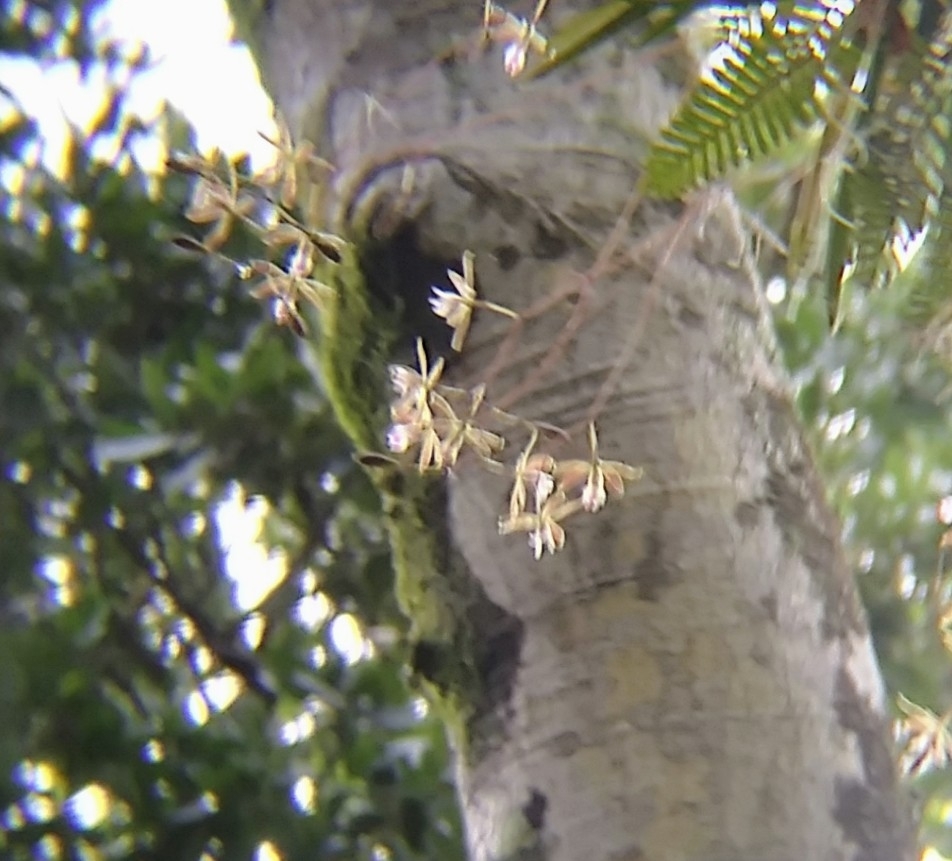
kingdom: Plantae
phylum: Tracheophyta
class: Liliopsida
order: Asparagales
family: Orchidaceae
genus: Encyclia
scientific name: Encyclia tampensis
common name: Florida butterfly orchid
